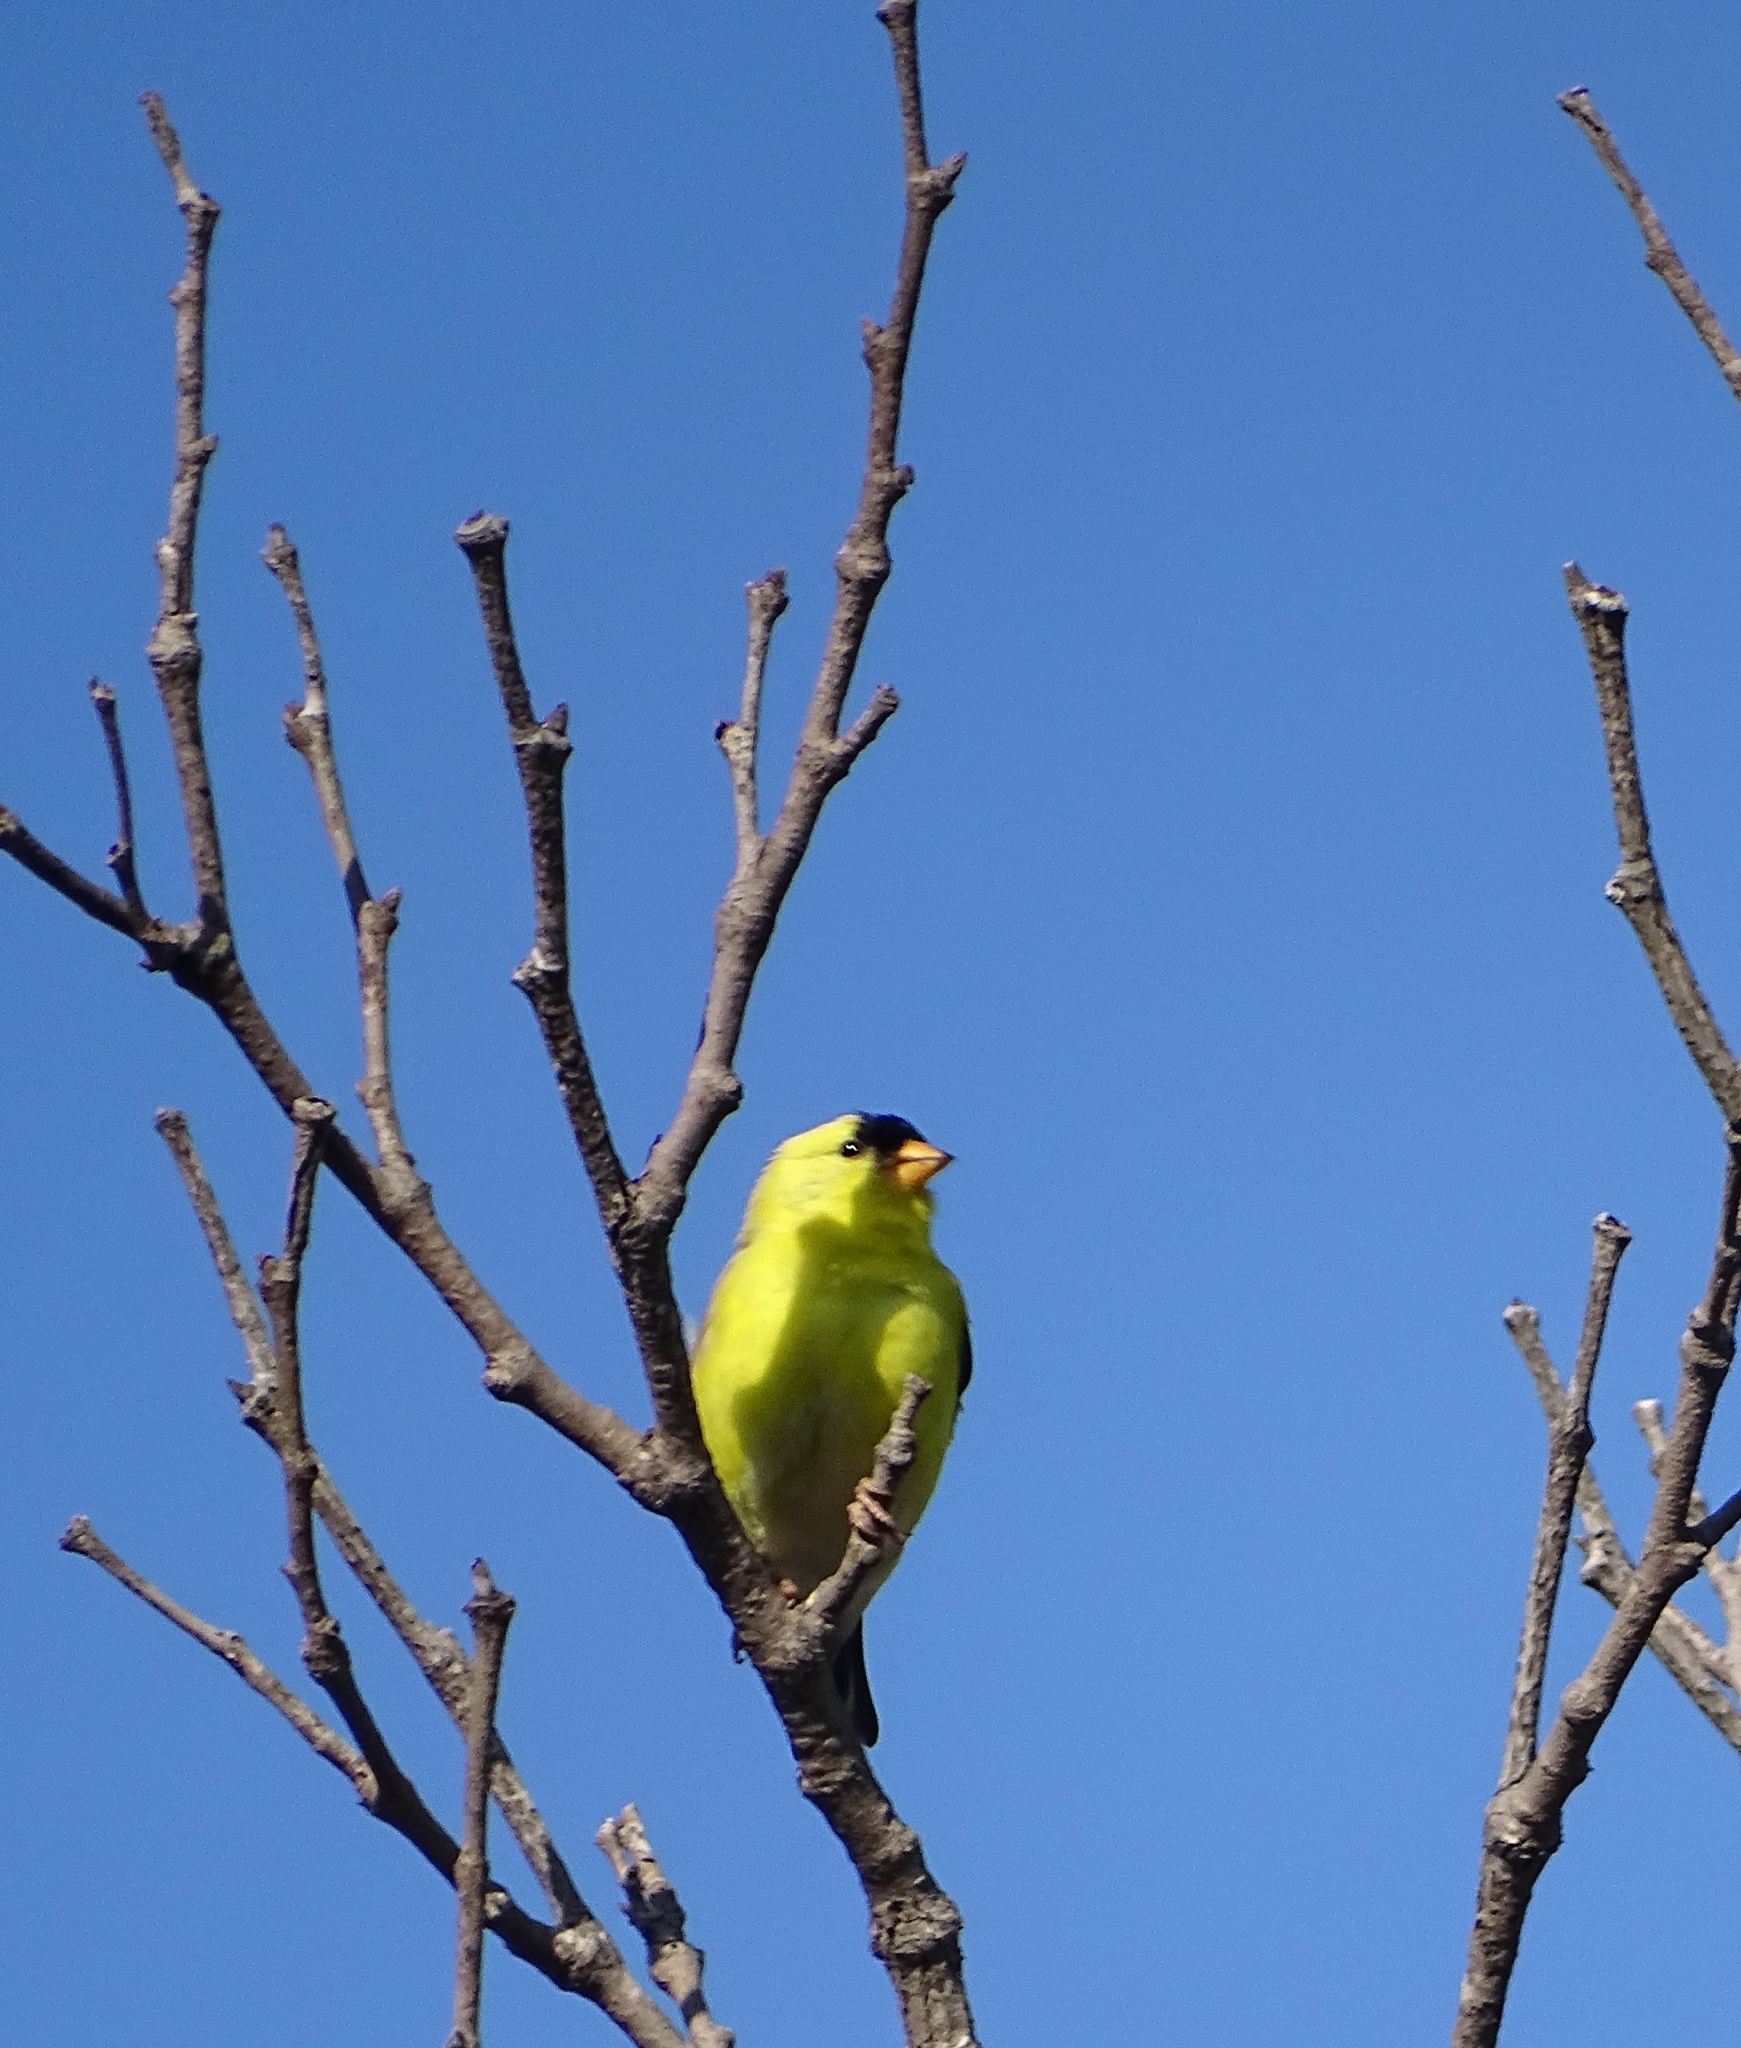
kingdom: Animalia
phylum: Chordata
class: Aves
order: Passeriformes
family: Fringillidae
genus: Spinus
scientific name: Spinus tristis
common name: American goldfinch
